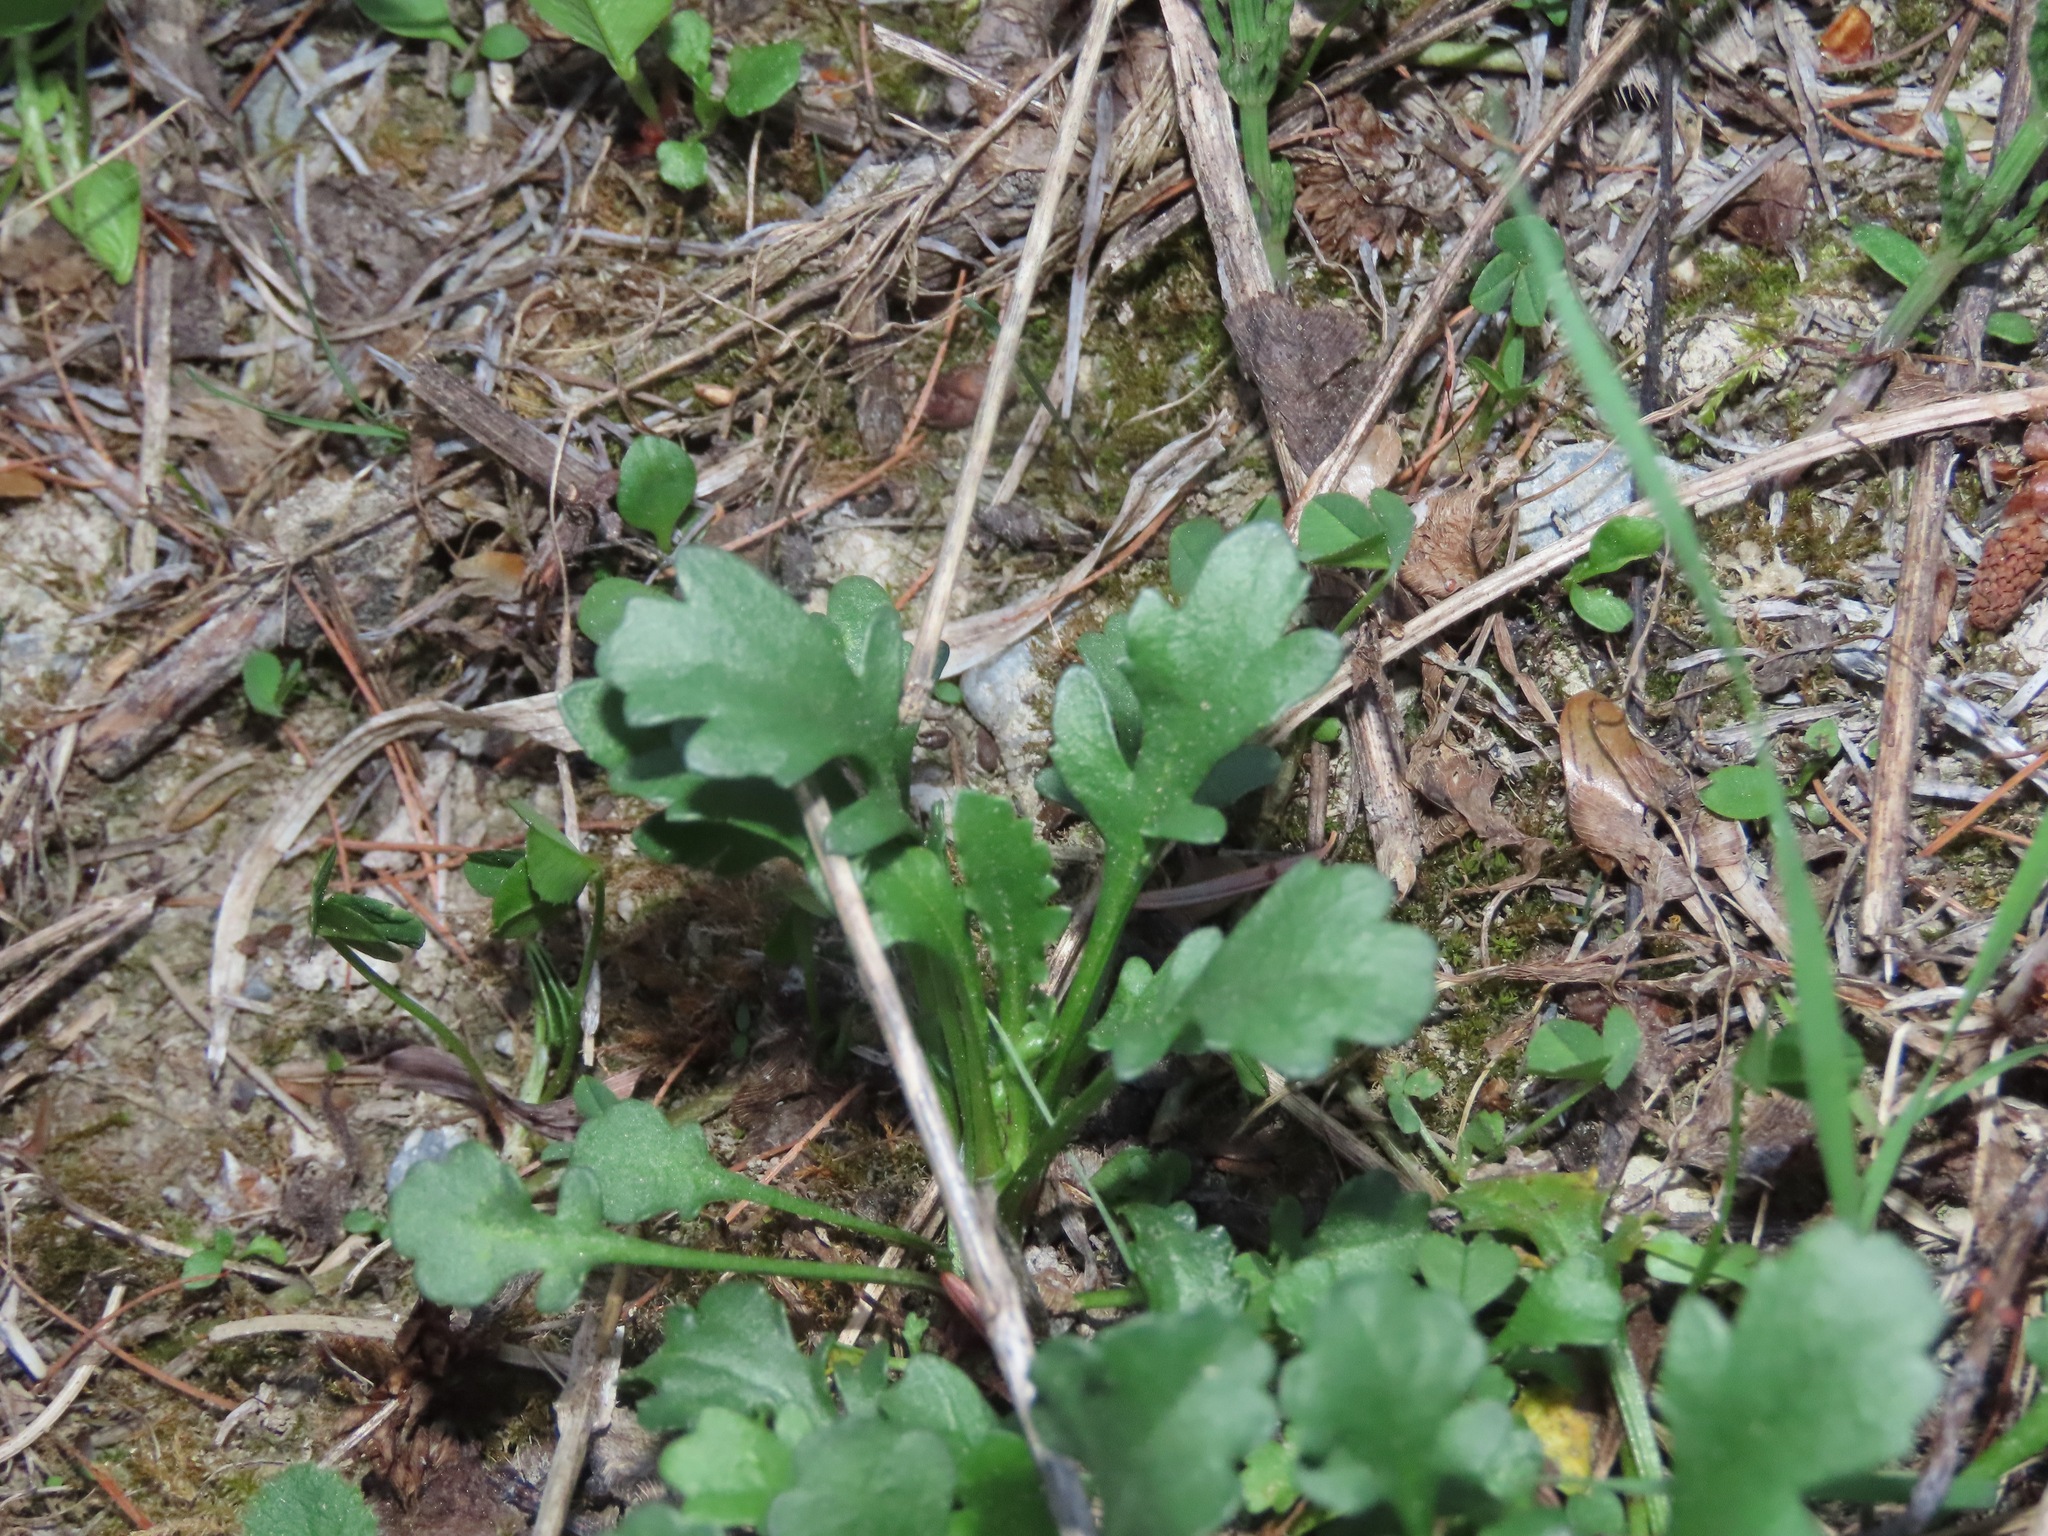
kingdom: Plantae
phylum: Tracheophyta
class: Magnoliopsida
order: Asterales
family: Asteraceae
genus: Leucanthemum
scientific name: Leucanthemum vulgare
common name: Oxeye daisy
